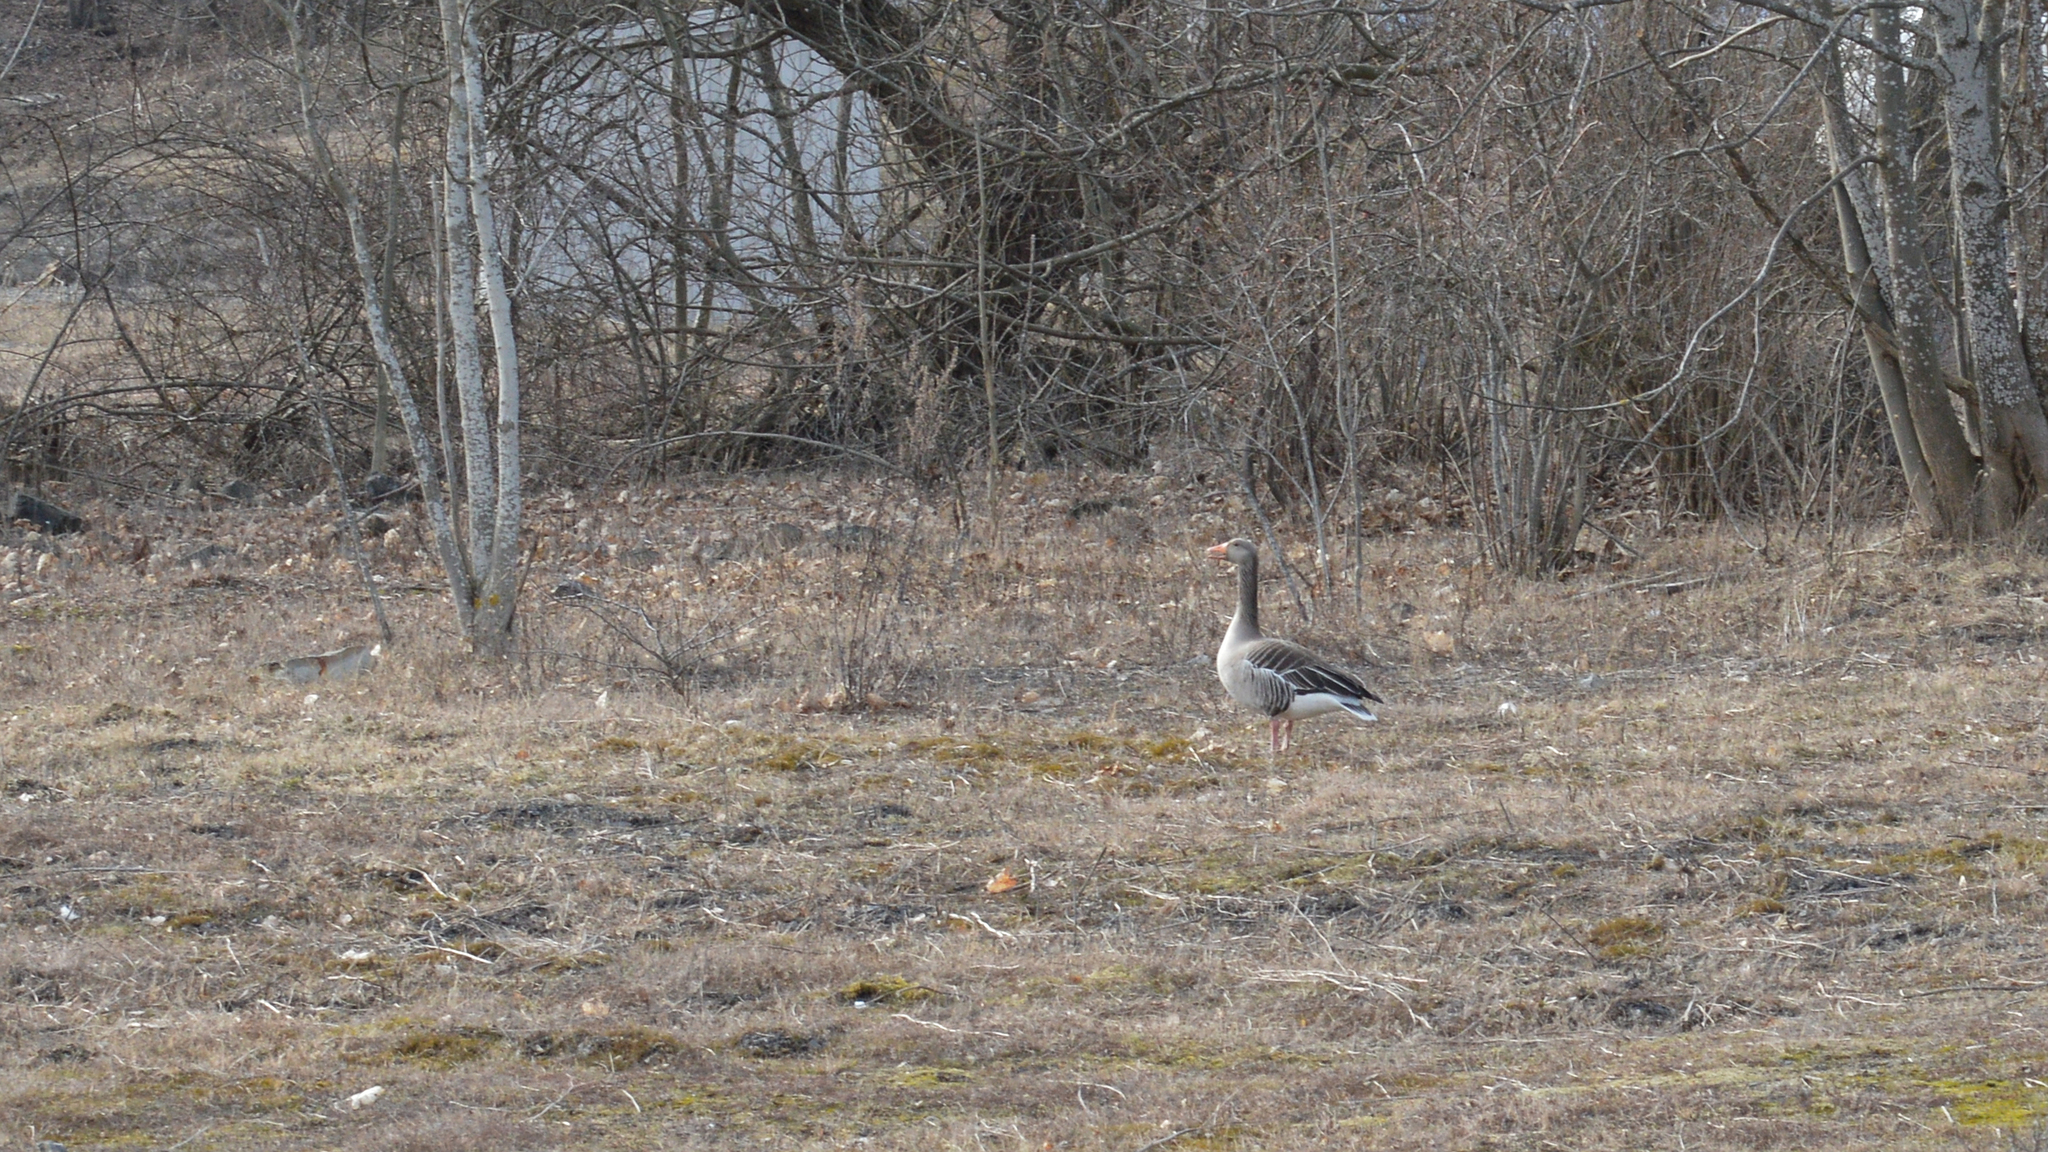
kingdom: Animalia
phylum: Chordata
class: Aves
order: Anseriformes
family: Anatidae
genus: Anser
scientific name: Anser anser
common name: Greylag goose
